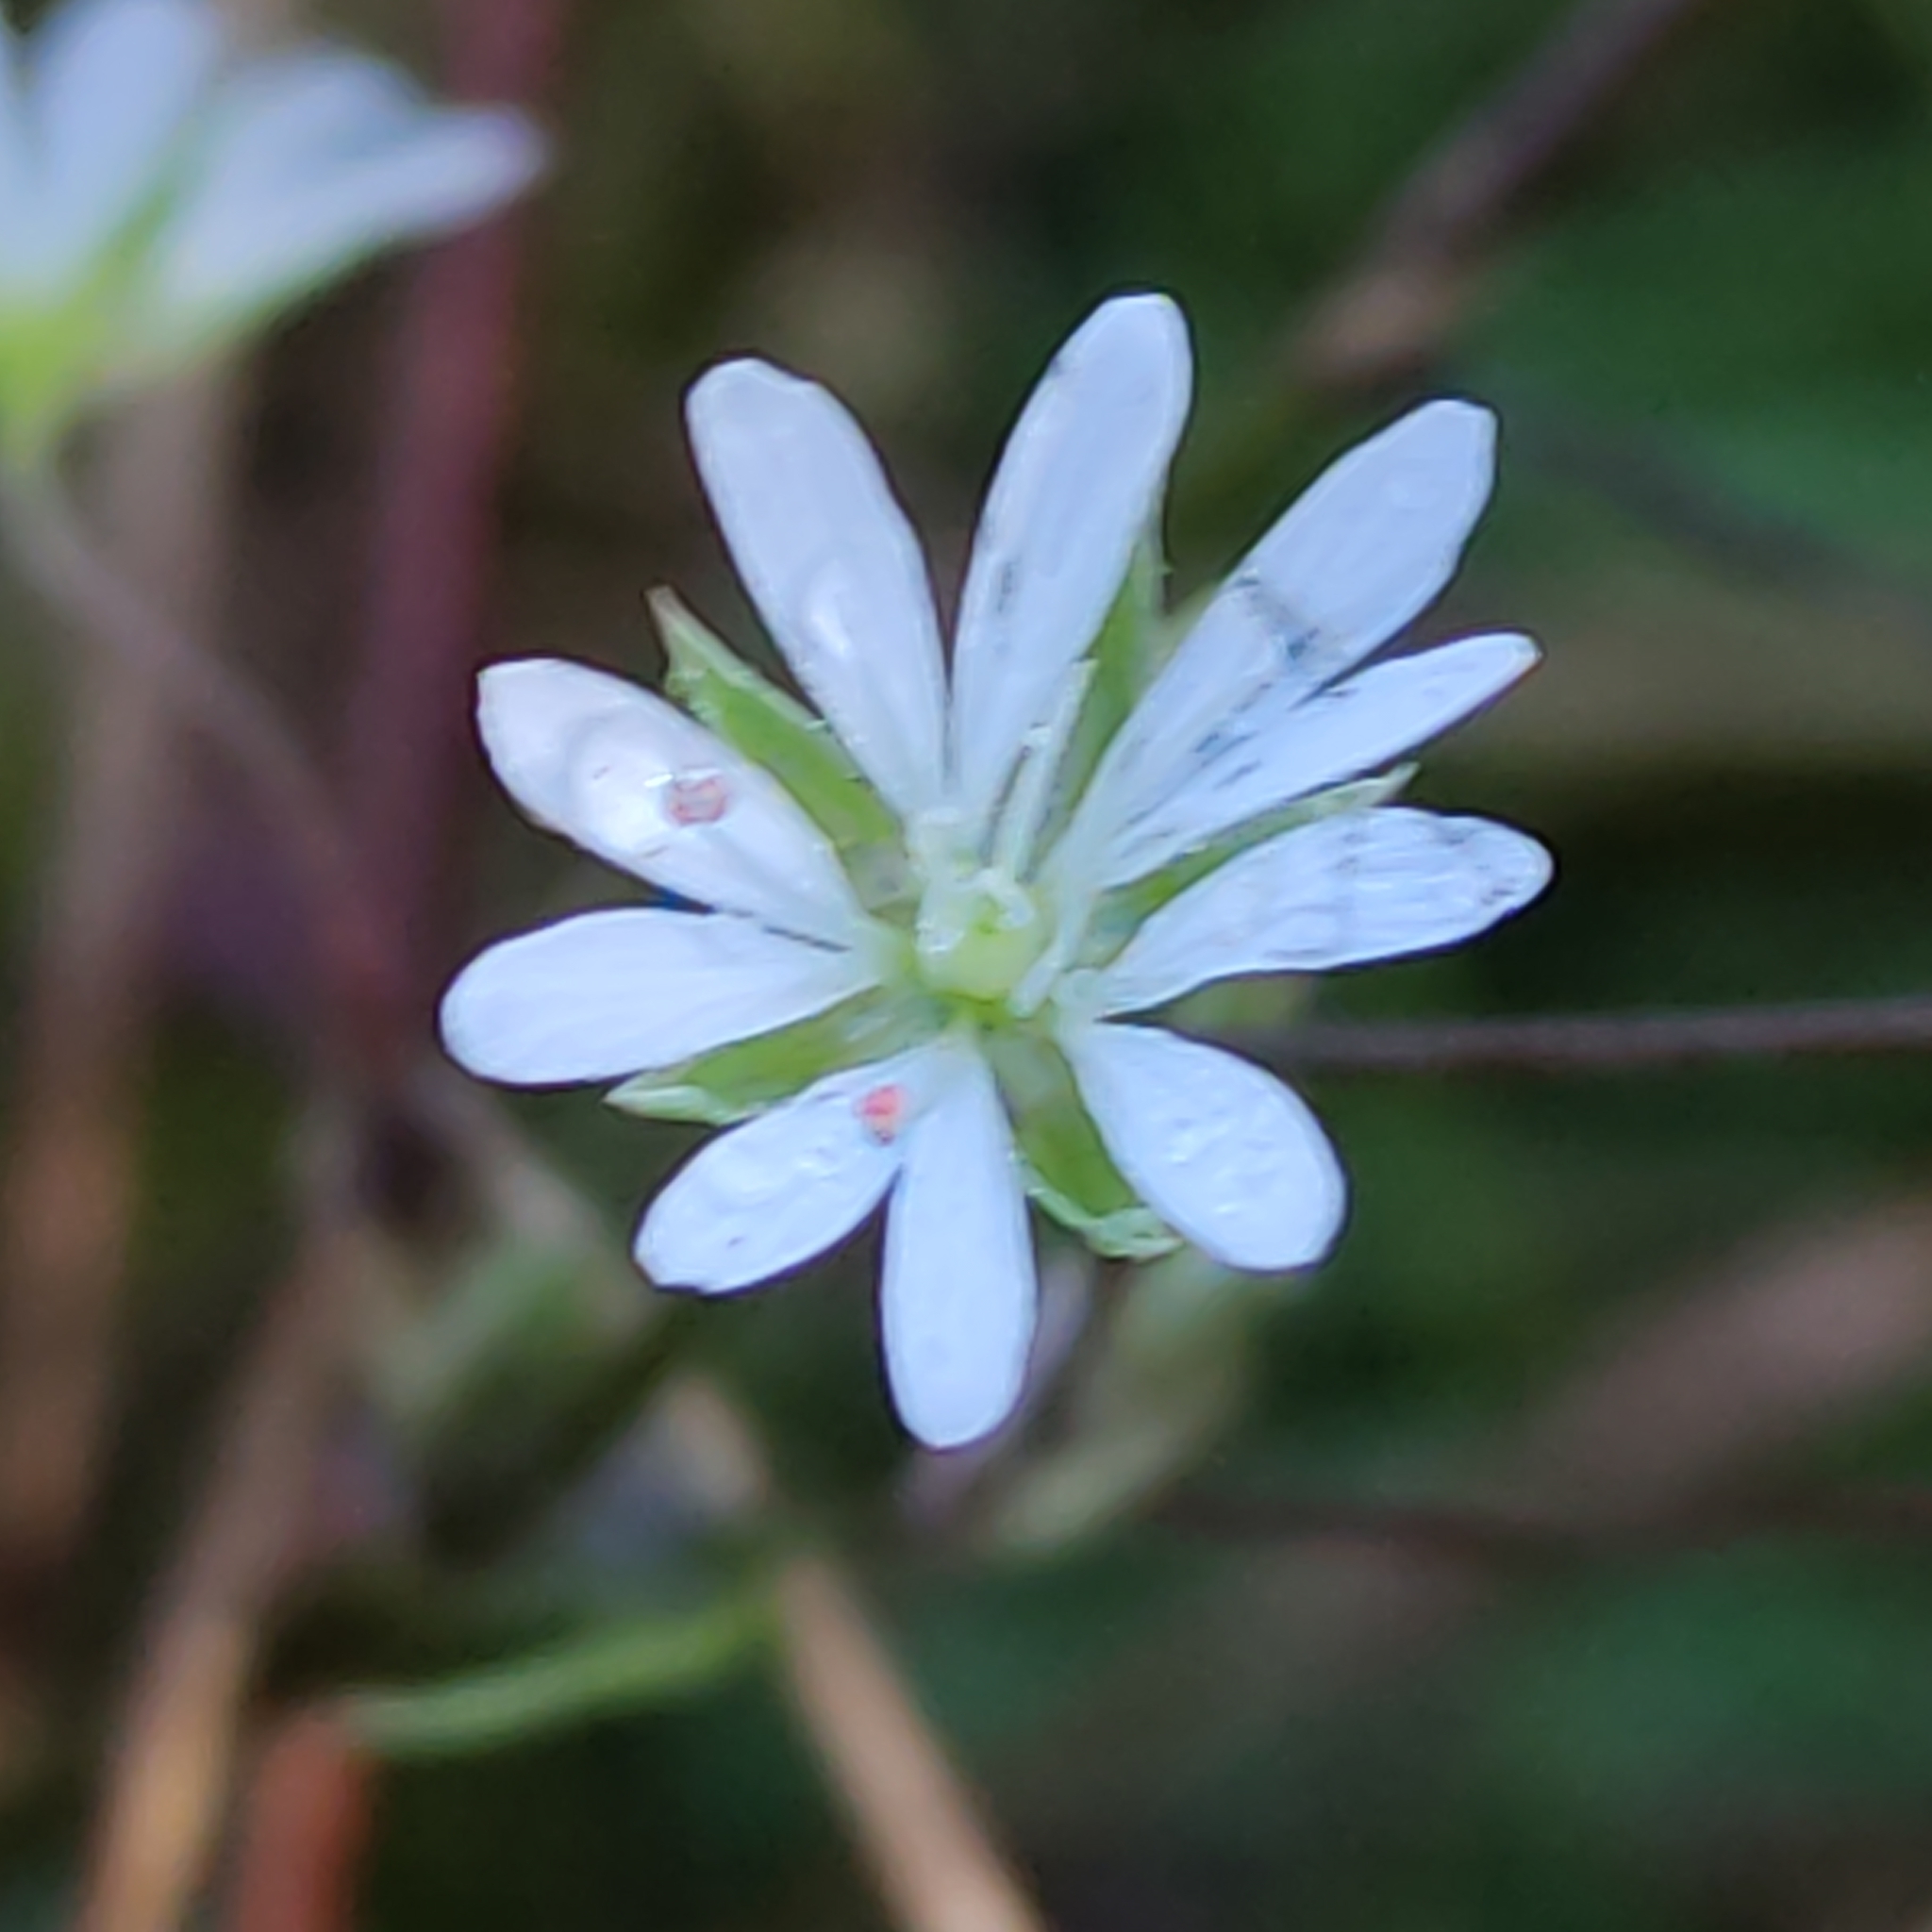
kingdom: Plantae
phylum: Tracheophyta
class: Magnoliopsida
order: Caryophyllales
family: Caryophyllaceae
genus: Stellaria
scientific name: Stellaria graminea
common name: Grass-like starwort
